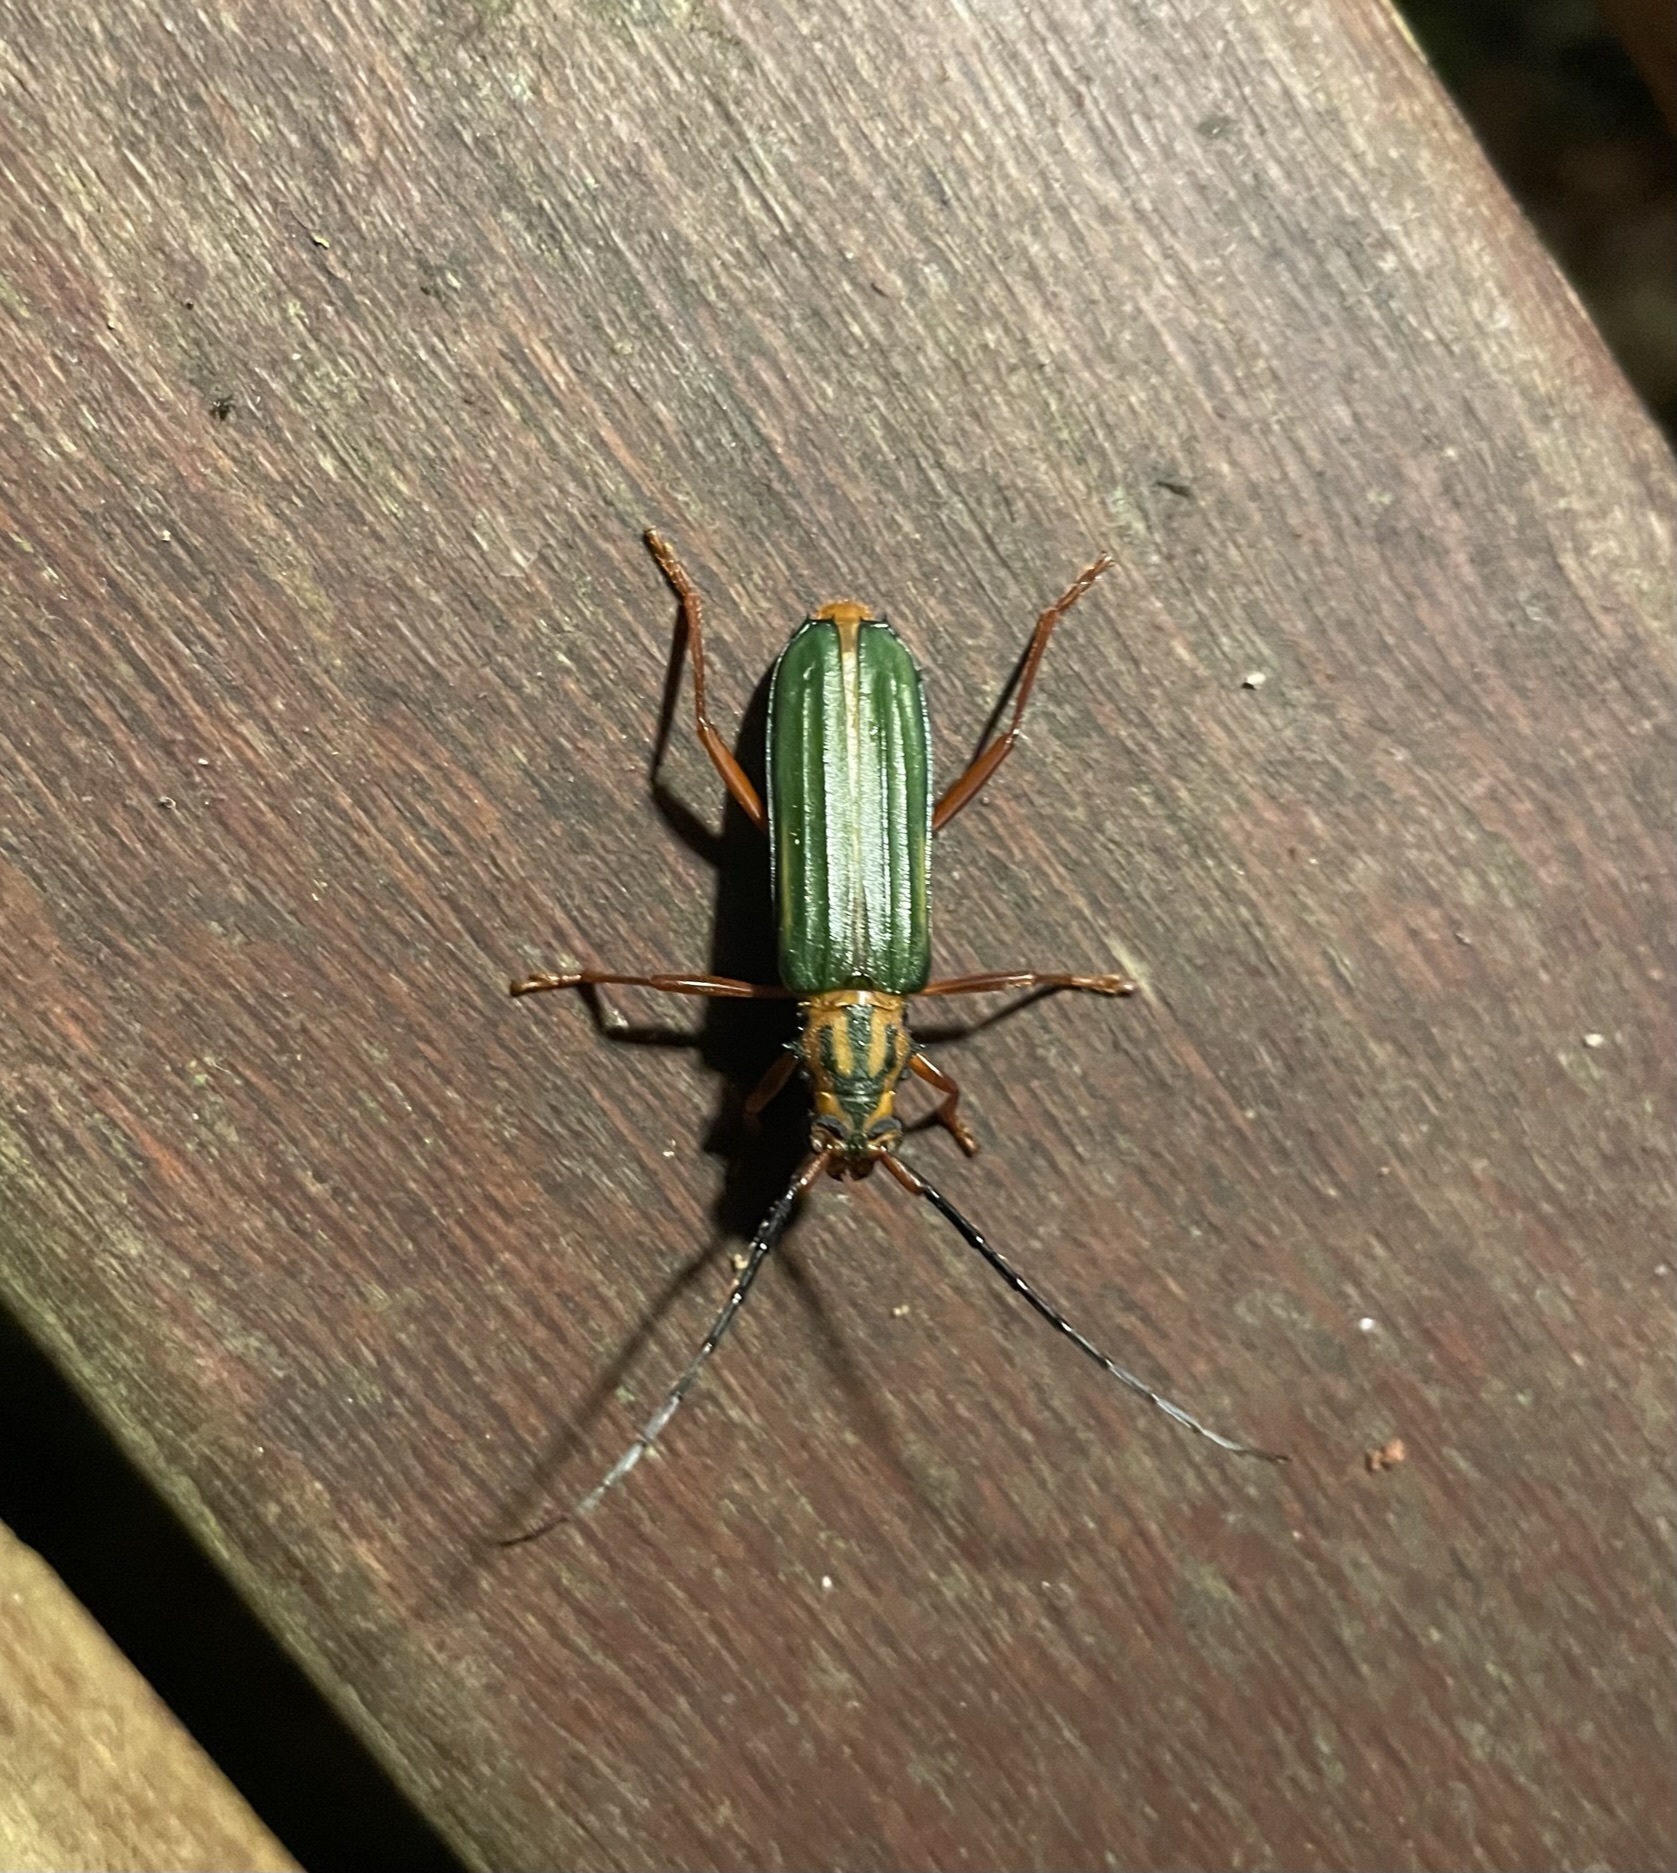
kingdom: Animalia
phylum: Arthropoda
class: Insecta
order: Coleoptera
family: Cerambycidae
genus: Chlorida
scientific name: Chlorida festiva
